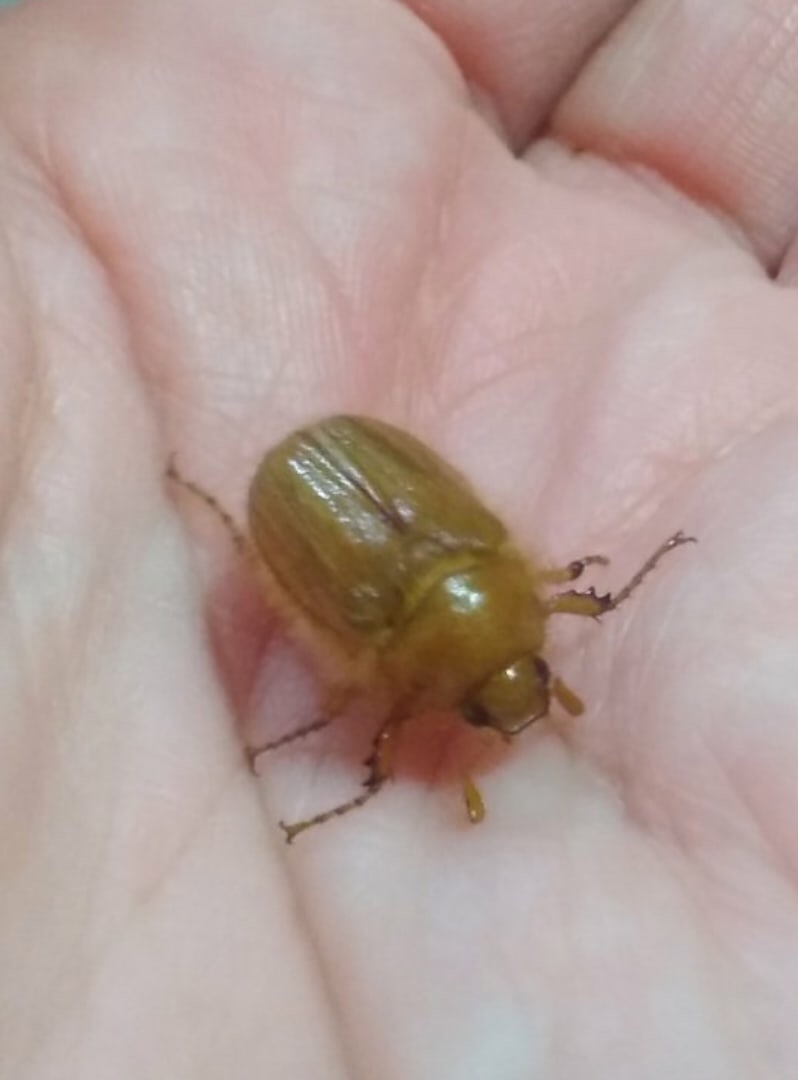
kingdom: Animalia
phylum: Arthropoda
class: Insecta
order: Coleoptera
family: Scarabaeidae
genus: Amphimallon
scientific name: Amphimallon volgense
